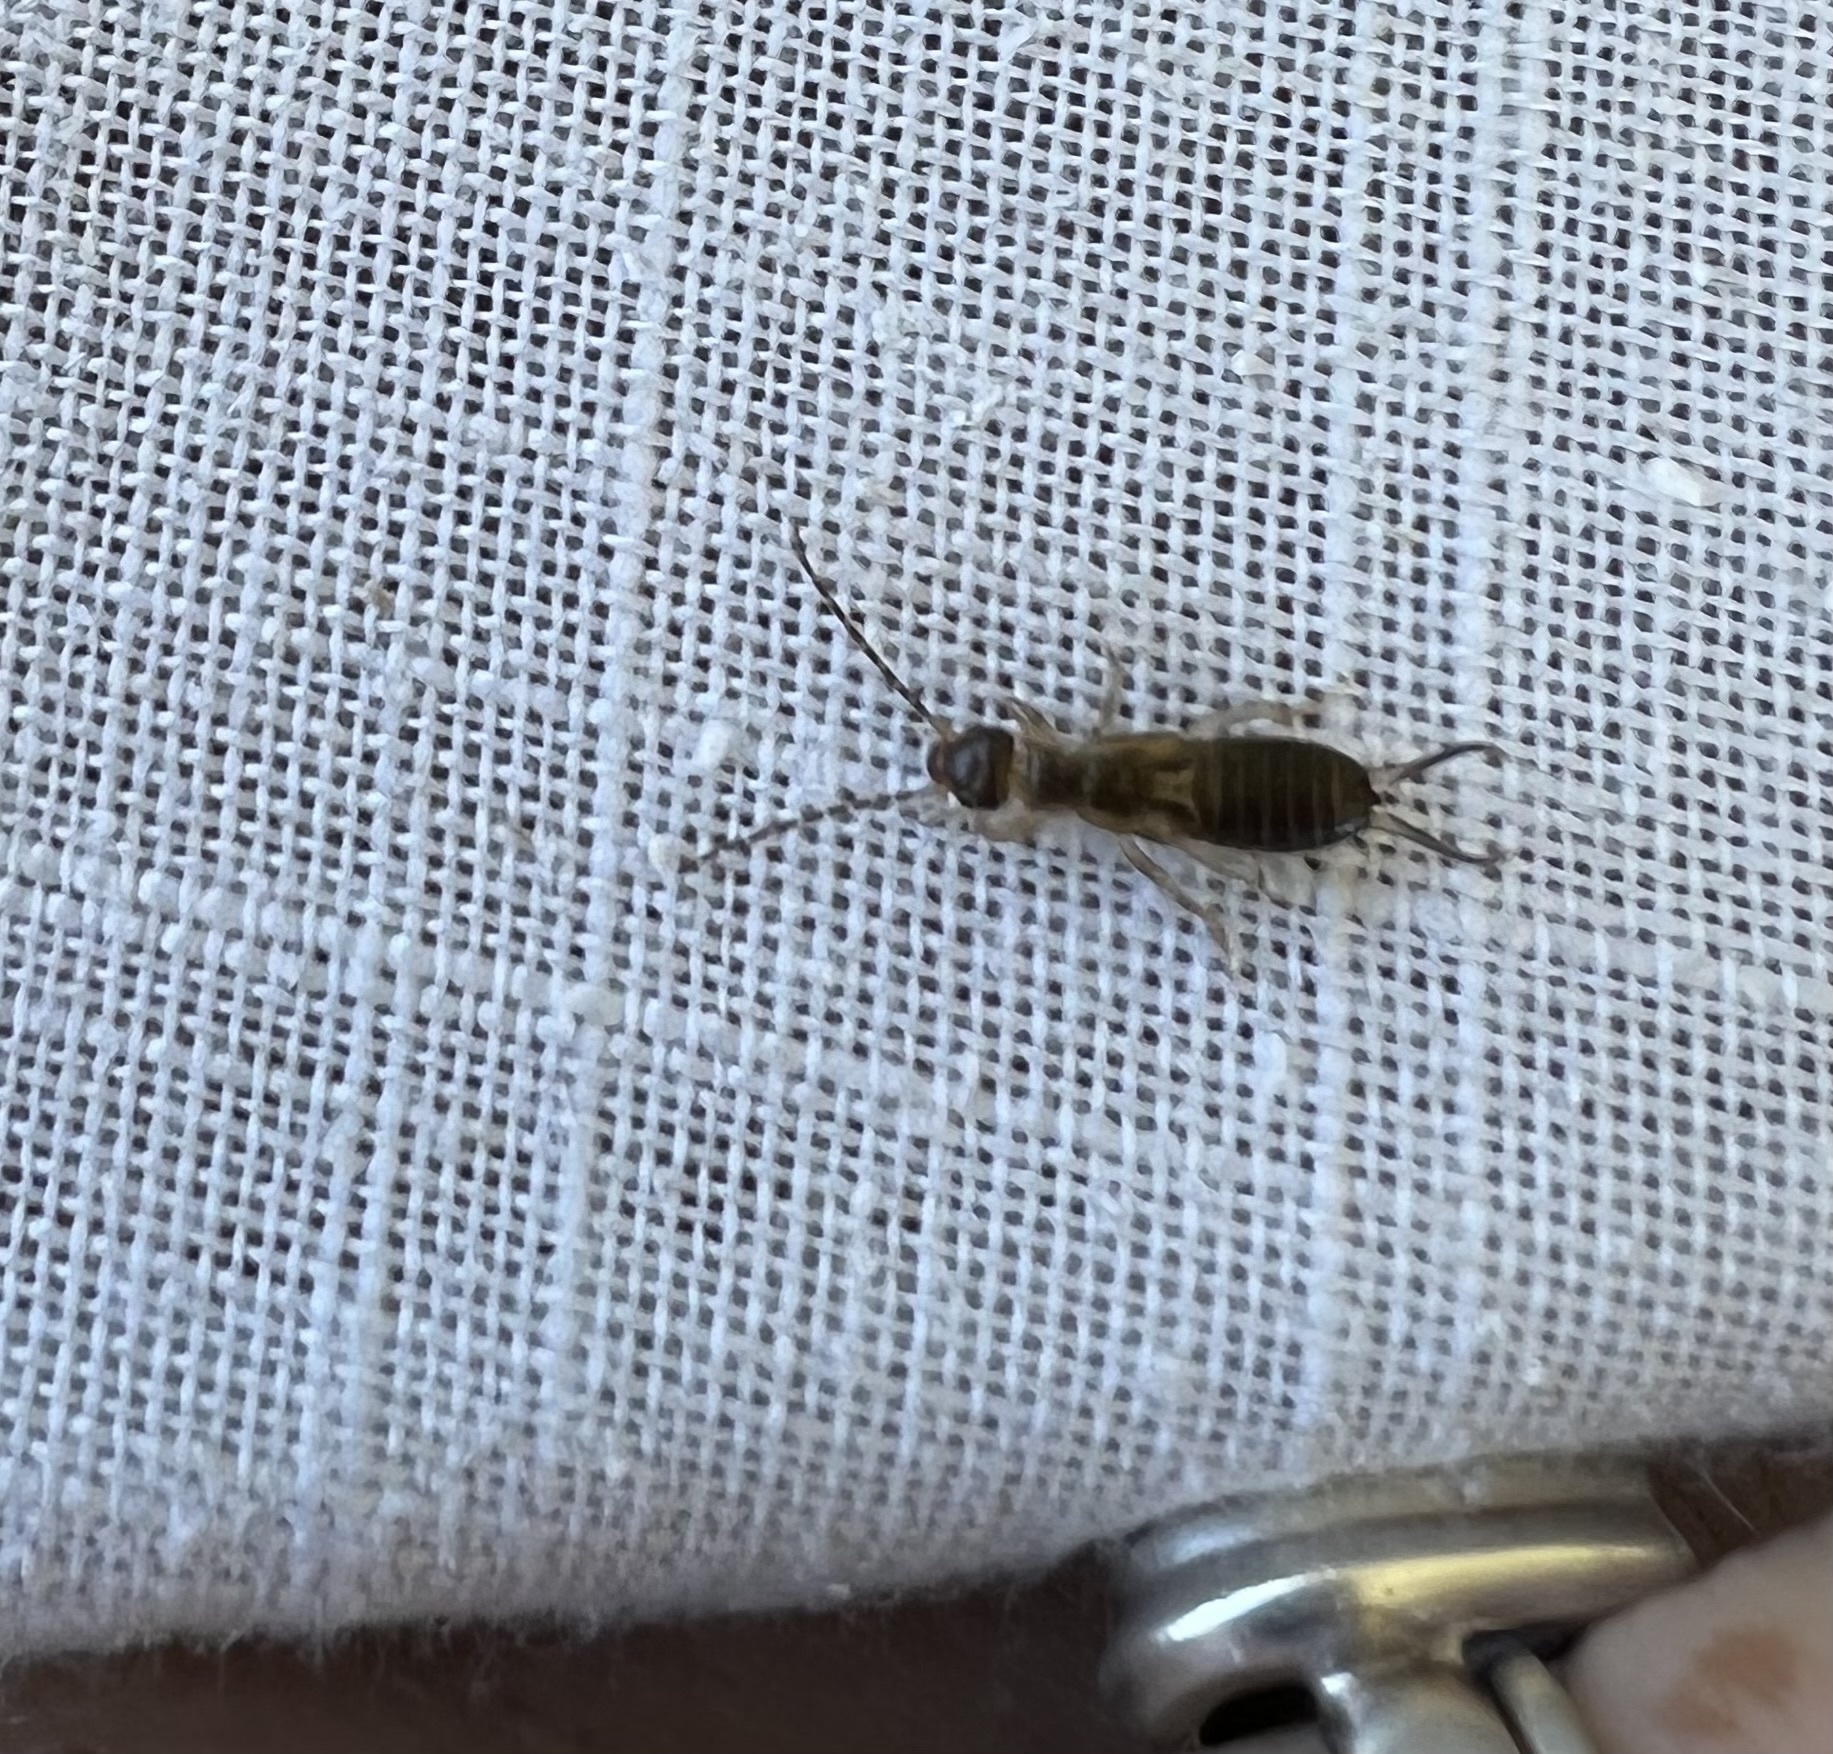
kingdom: Animalia
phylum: Arthropoda
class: Insecta
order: Dermaptera
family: Forficulidae
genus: Forficula
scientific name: Forficula
